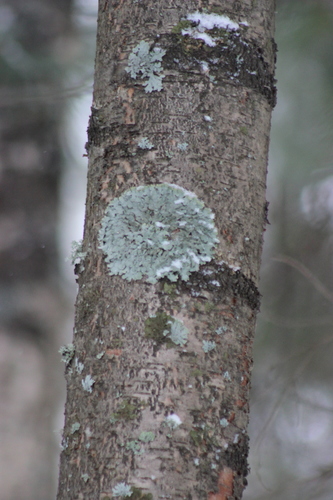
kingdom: Fungi
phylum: Ascomycota
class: Lecanoromycetes
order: Lecanorales
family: Parmeliaceae
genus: Parmelia
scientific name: Parmelia
